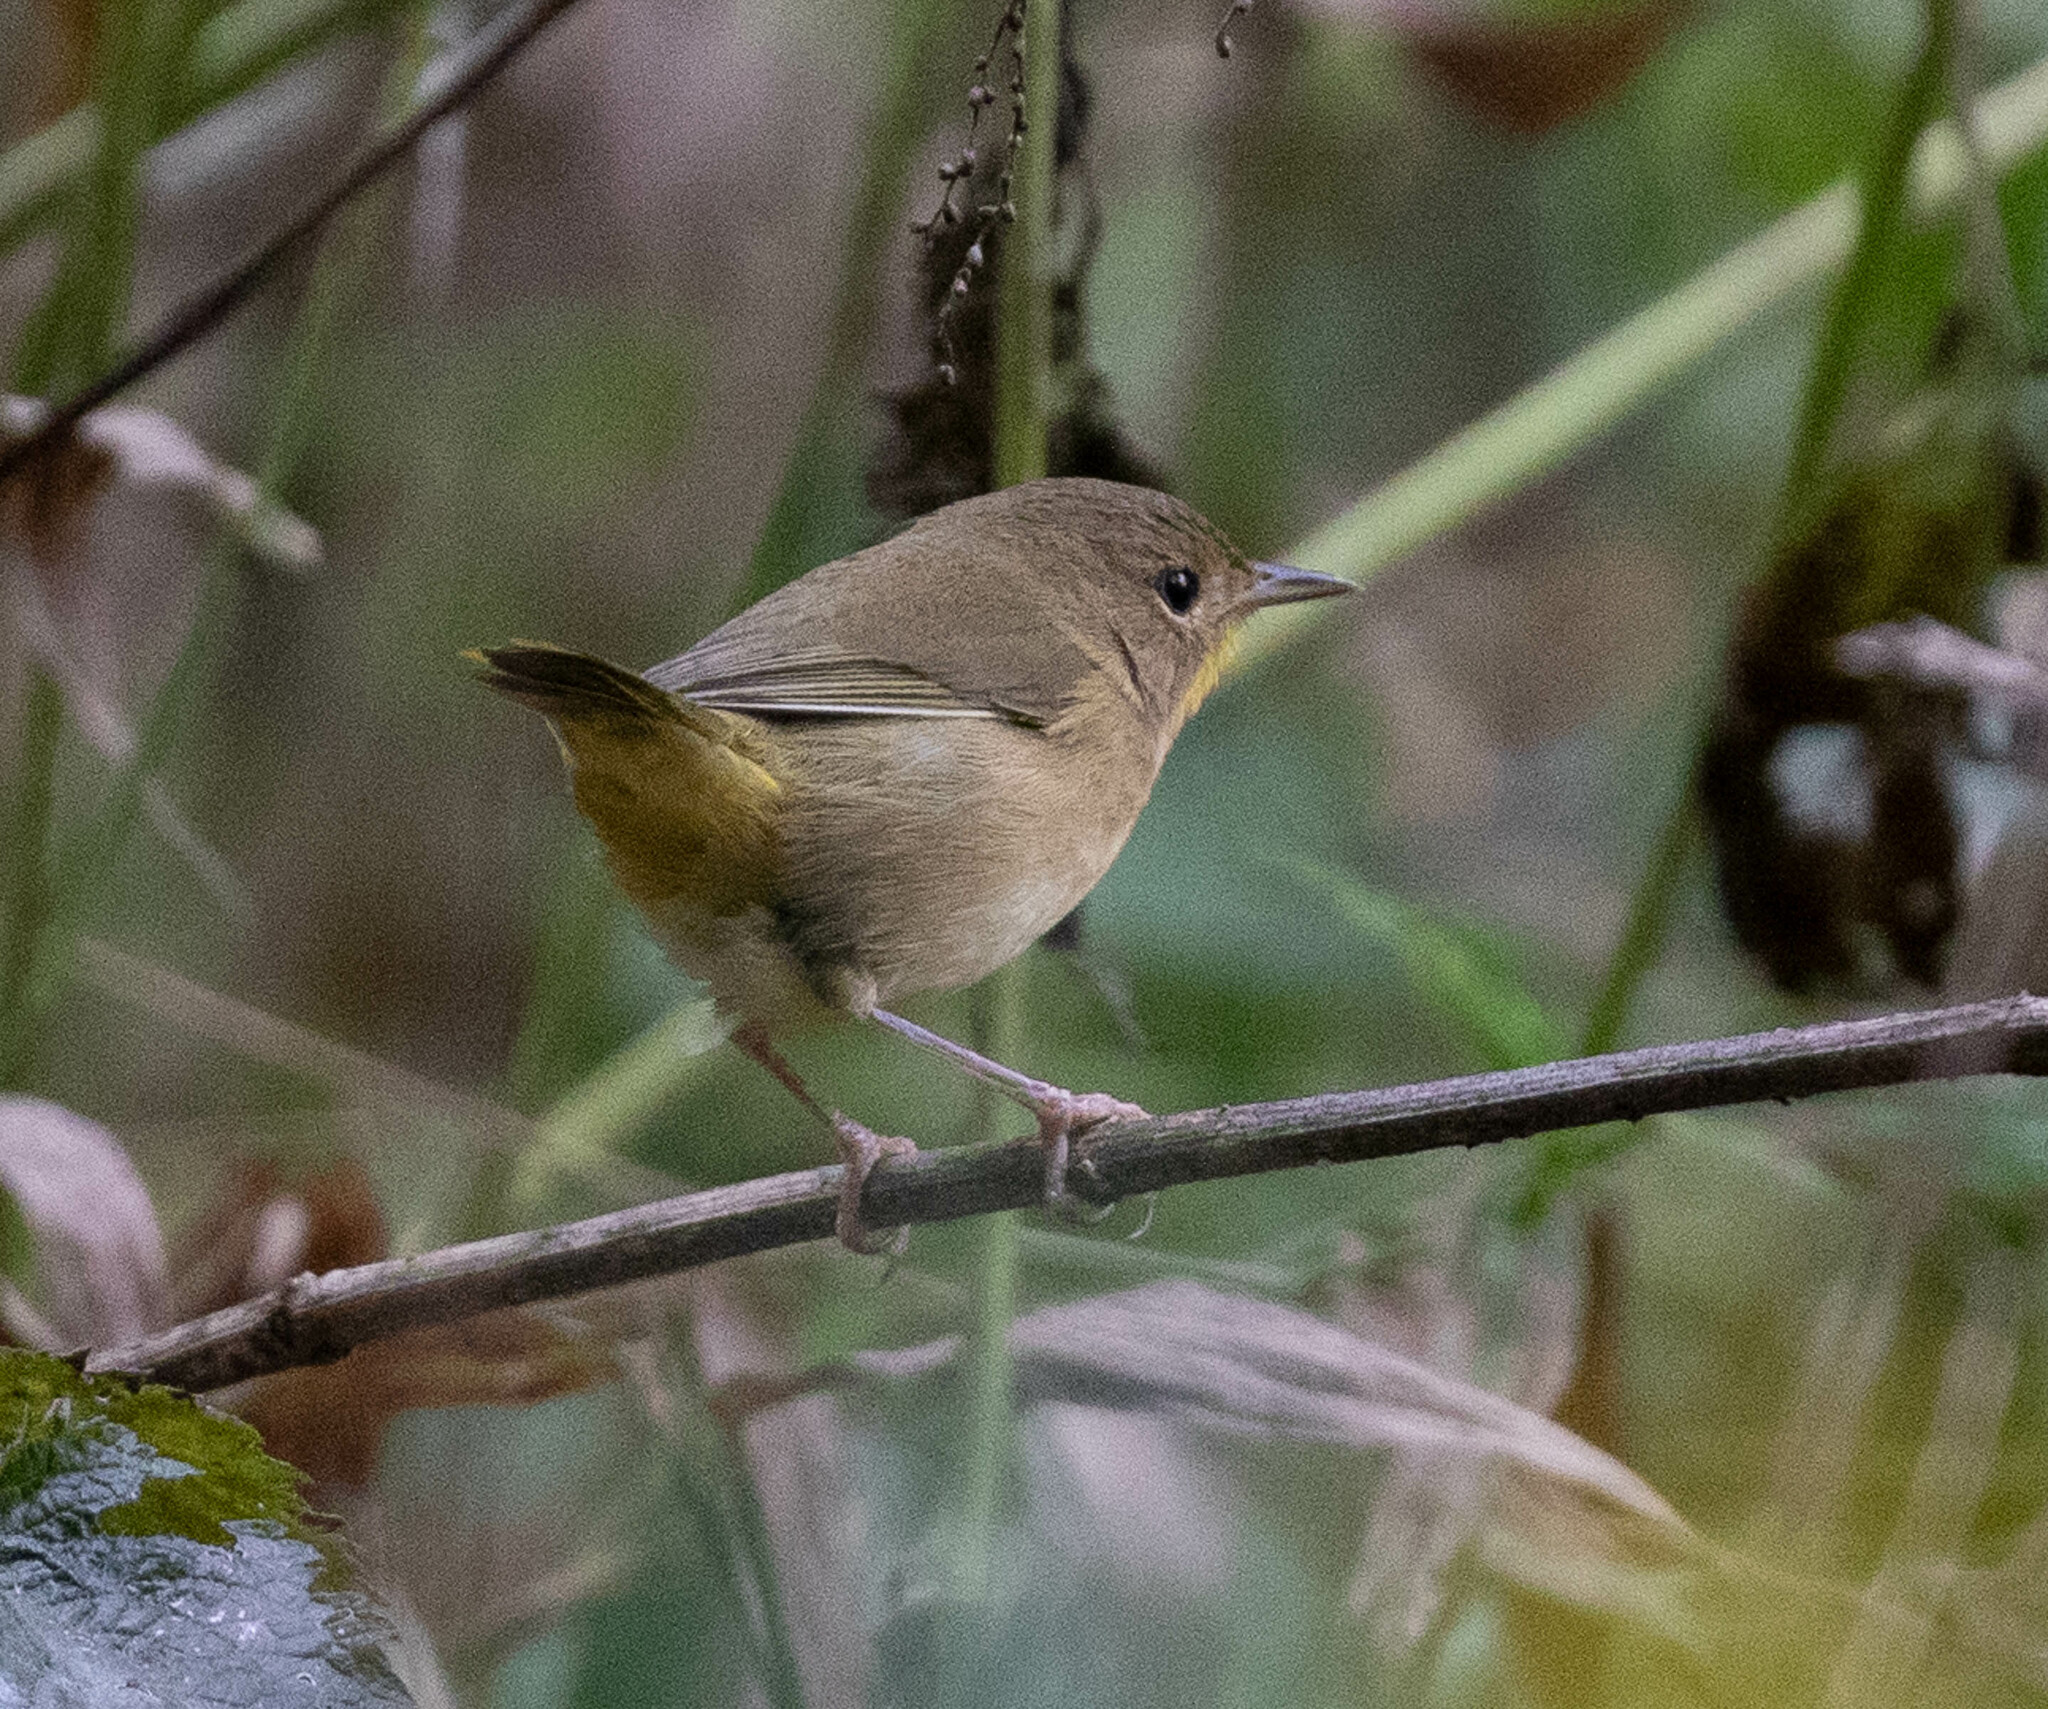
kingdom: Animalia
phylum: Chordata
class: Aves
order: Passeriformes
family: Parulidae
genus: Geothlypis
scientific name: Geothlypis trichas
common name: Common yellowthroat
